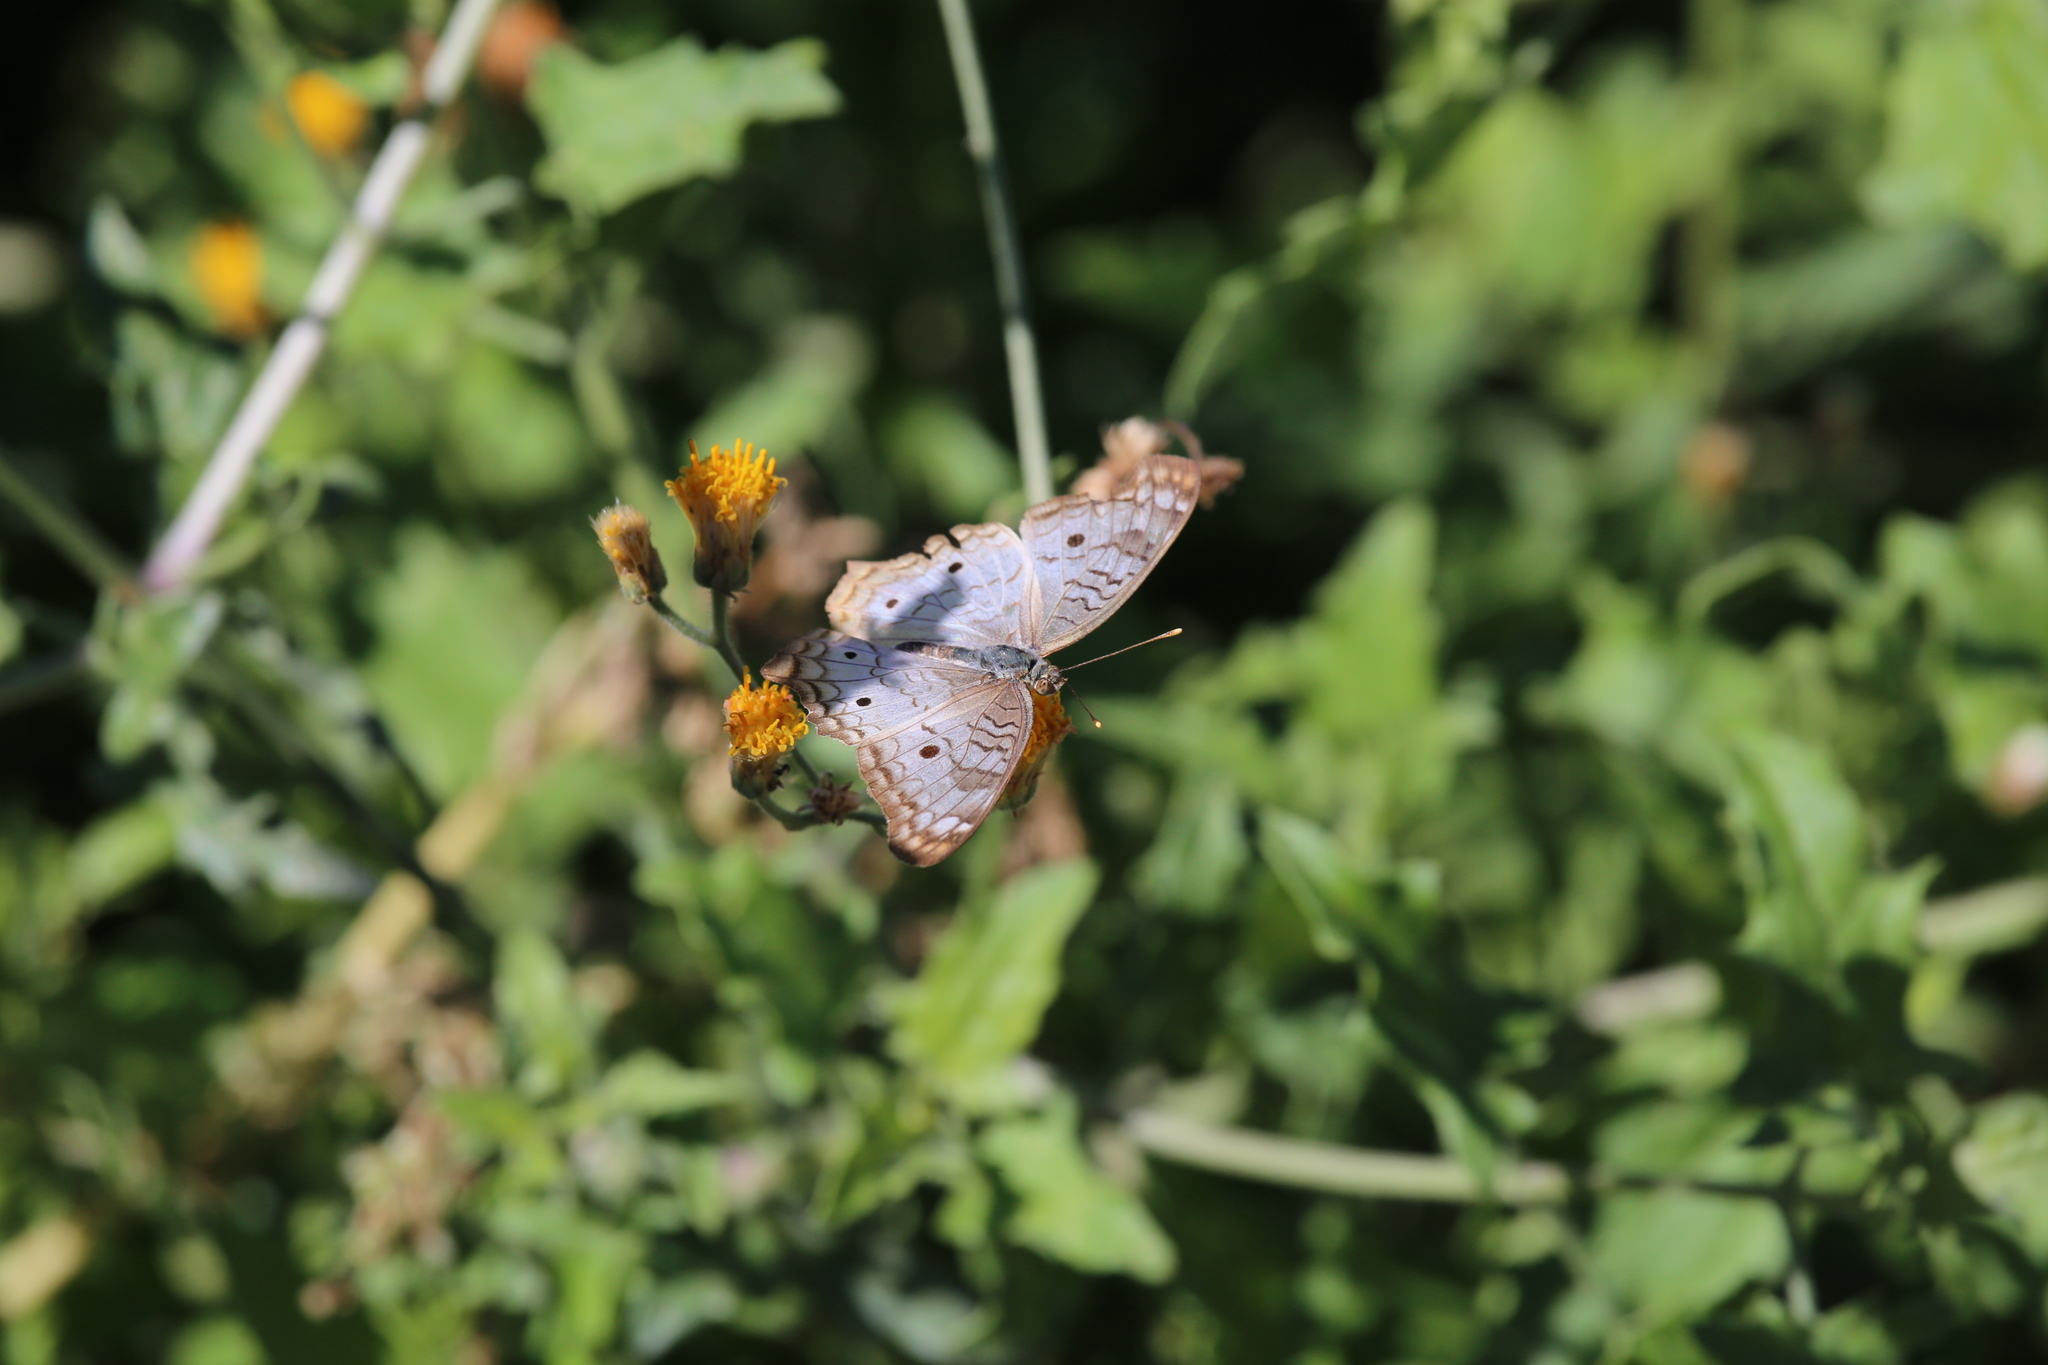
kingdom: Animalia
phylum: Arthropoda
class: Insecta
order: Lepidoptera
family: Nymphalidae
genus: Anartia
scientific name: Anartia jatrophae
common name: White peacock
